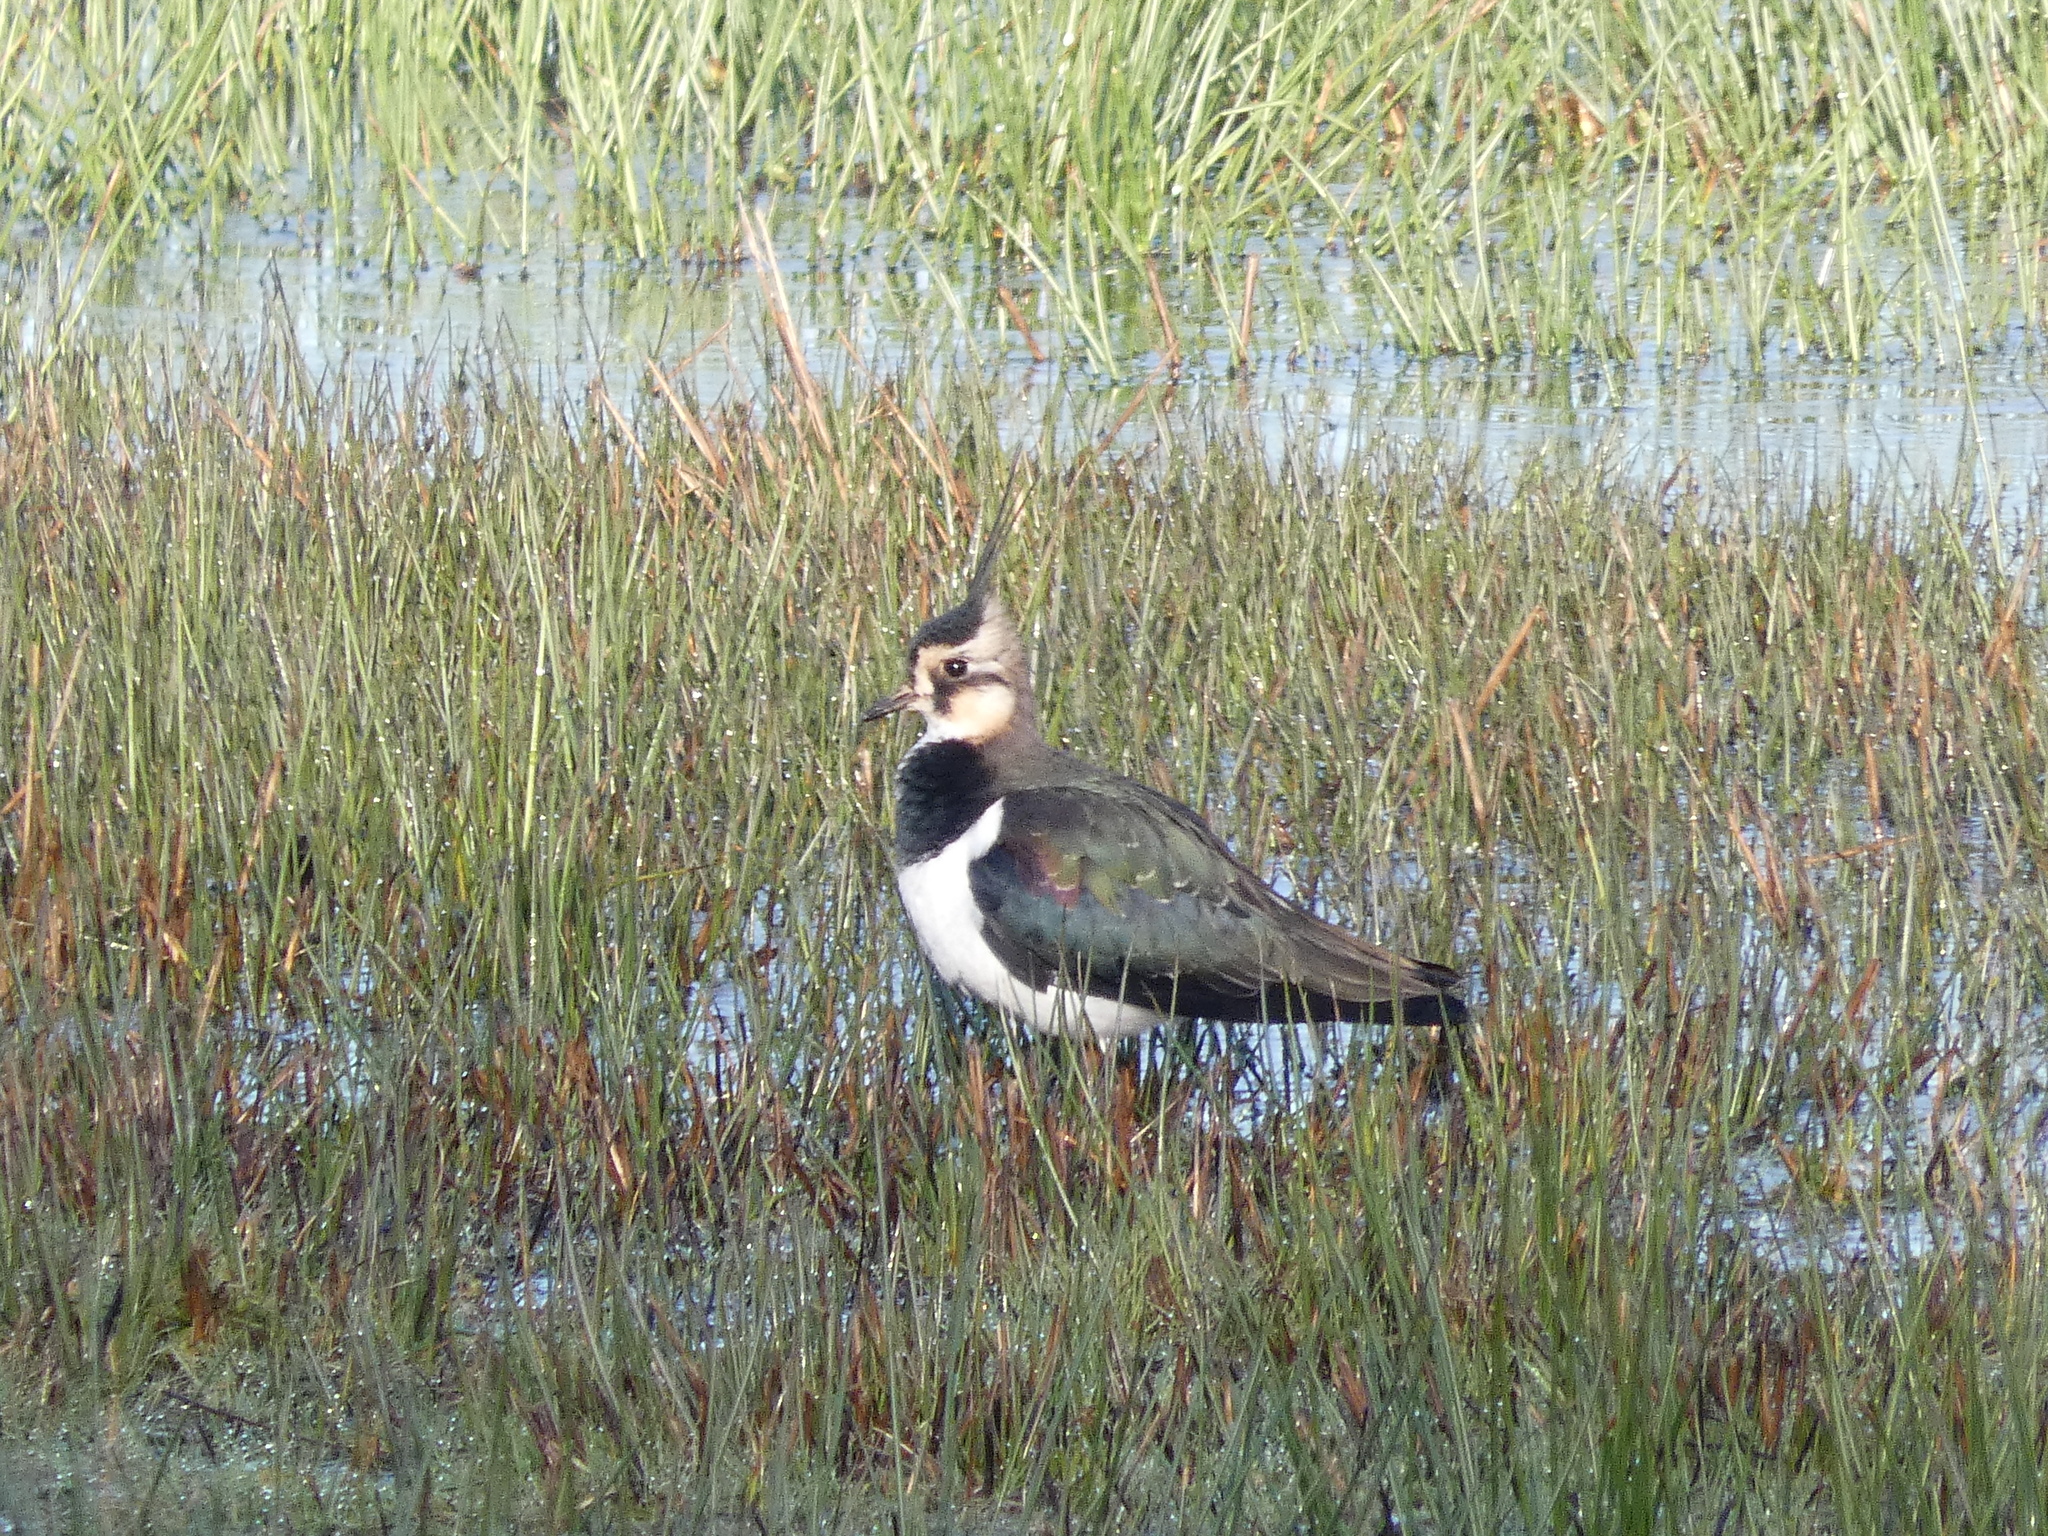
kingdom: Animalia
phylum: Chordata
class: Aves
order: Charadriiformes
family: Charadriidae
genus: Vanellus
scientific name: Vanellus vanellus
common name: Northern lapwing
